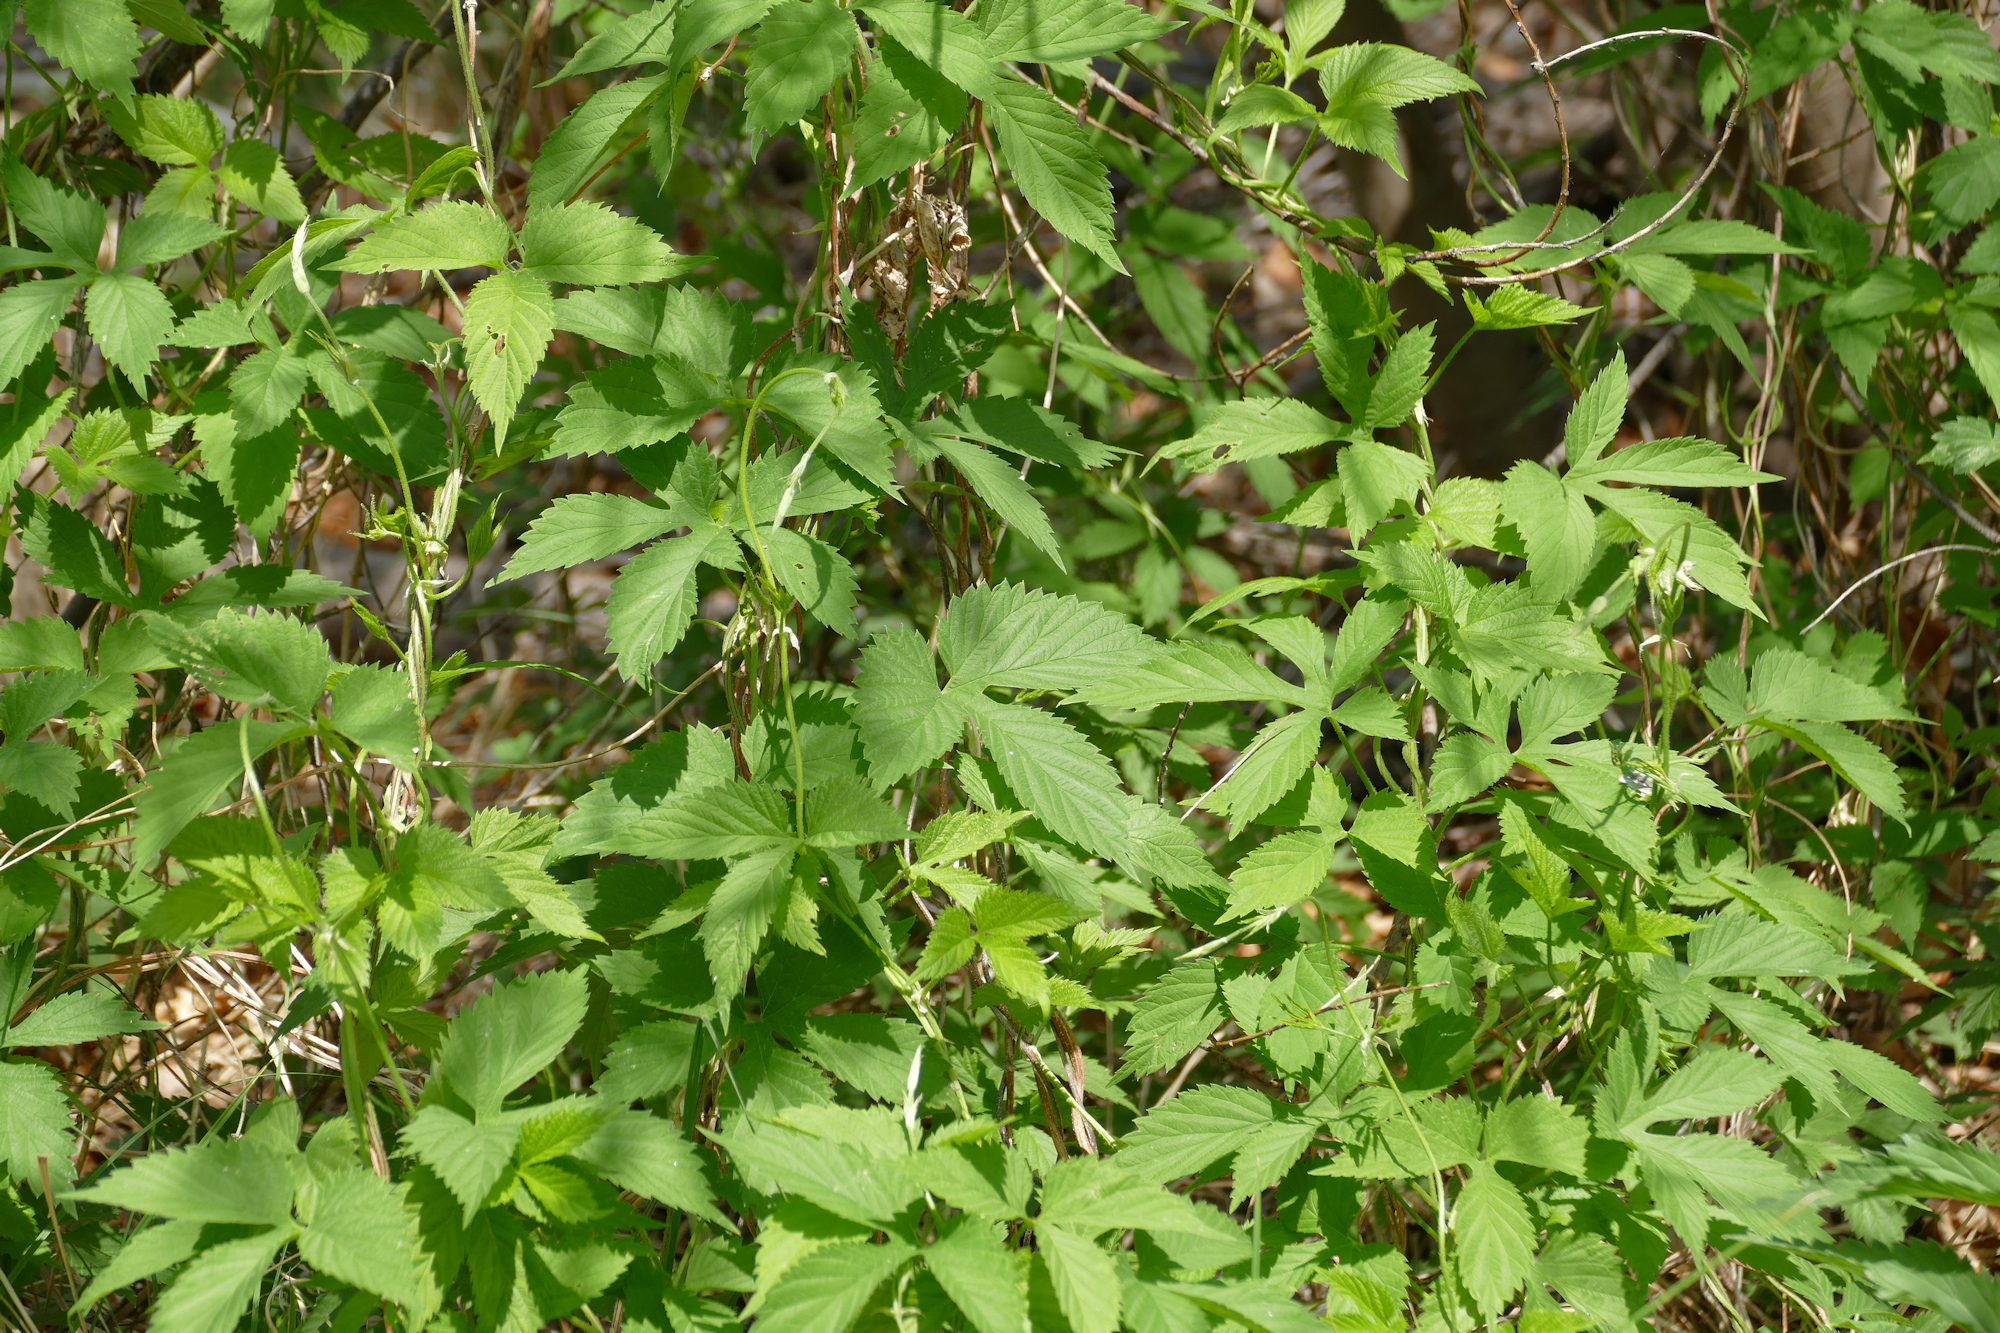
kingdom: Plantae
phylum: Tracheophyta
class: Magnoliopsida
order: Rosales
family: Cannabaceae
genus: Humulus
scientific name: Humulus lupulus
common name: Hop
